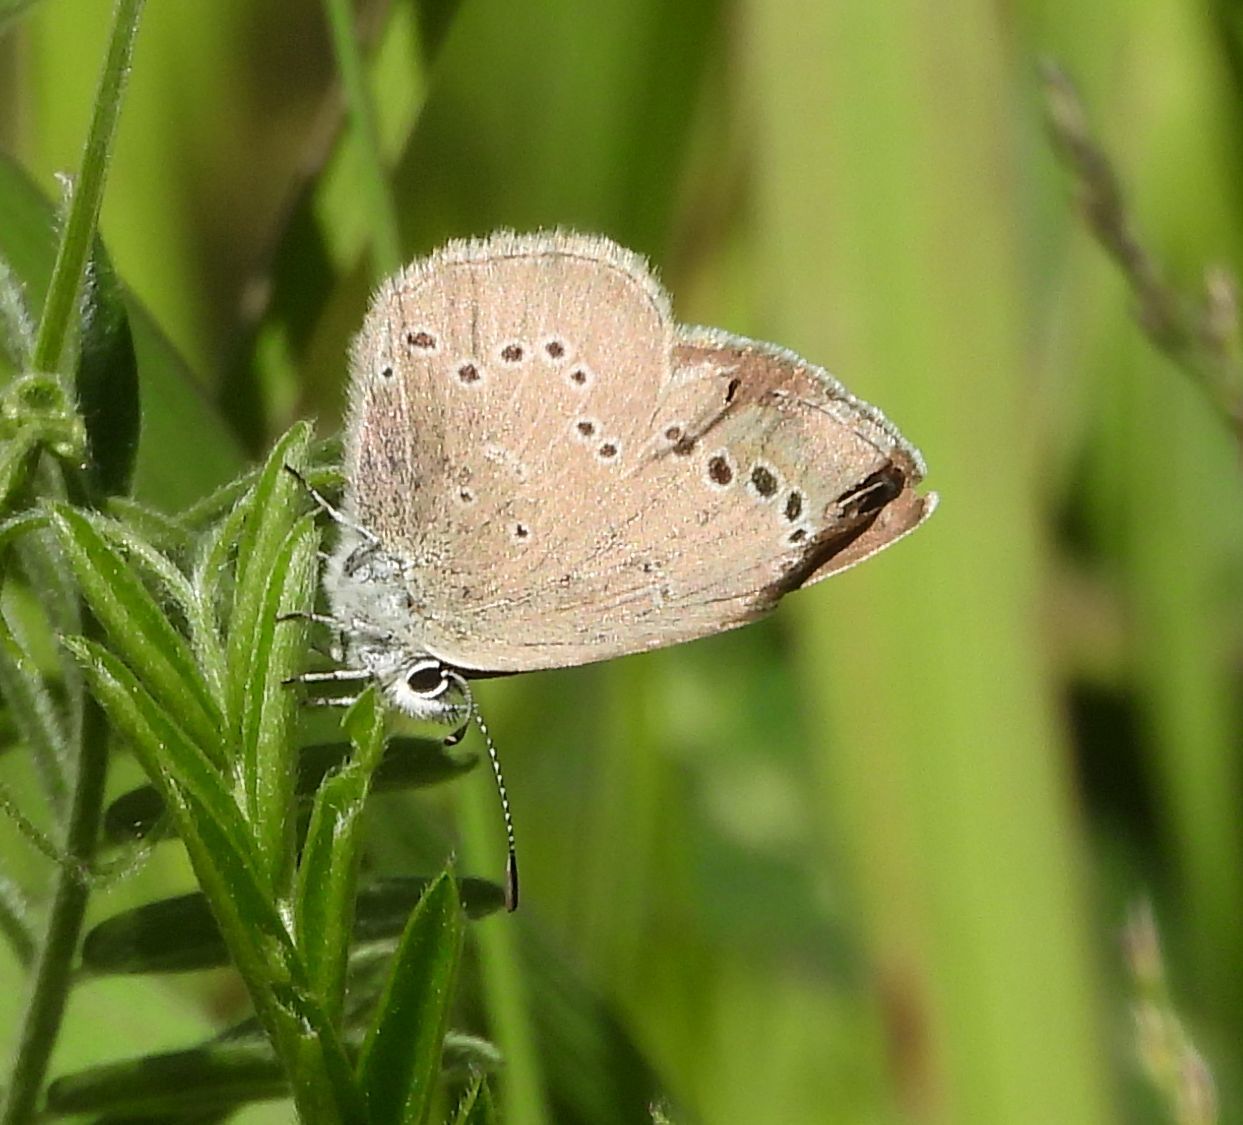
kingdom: Animalia
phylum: Arthropoda
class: Insecta
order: Lepidoptera
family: Lycaenidae
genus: Glaucopsyche
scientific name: Glaucopsyche lygdamus
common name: Silvery blue
